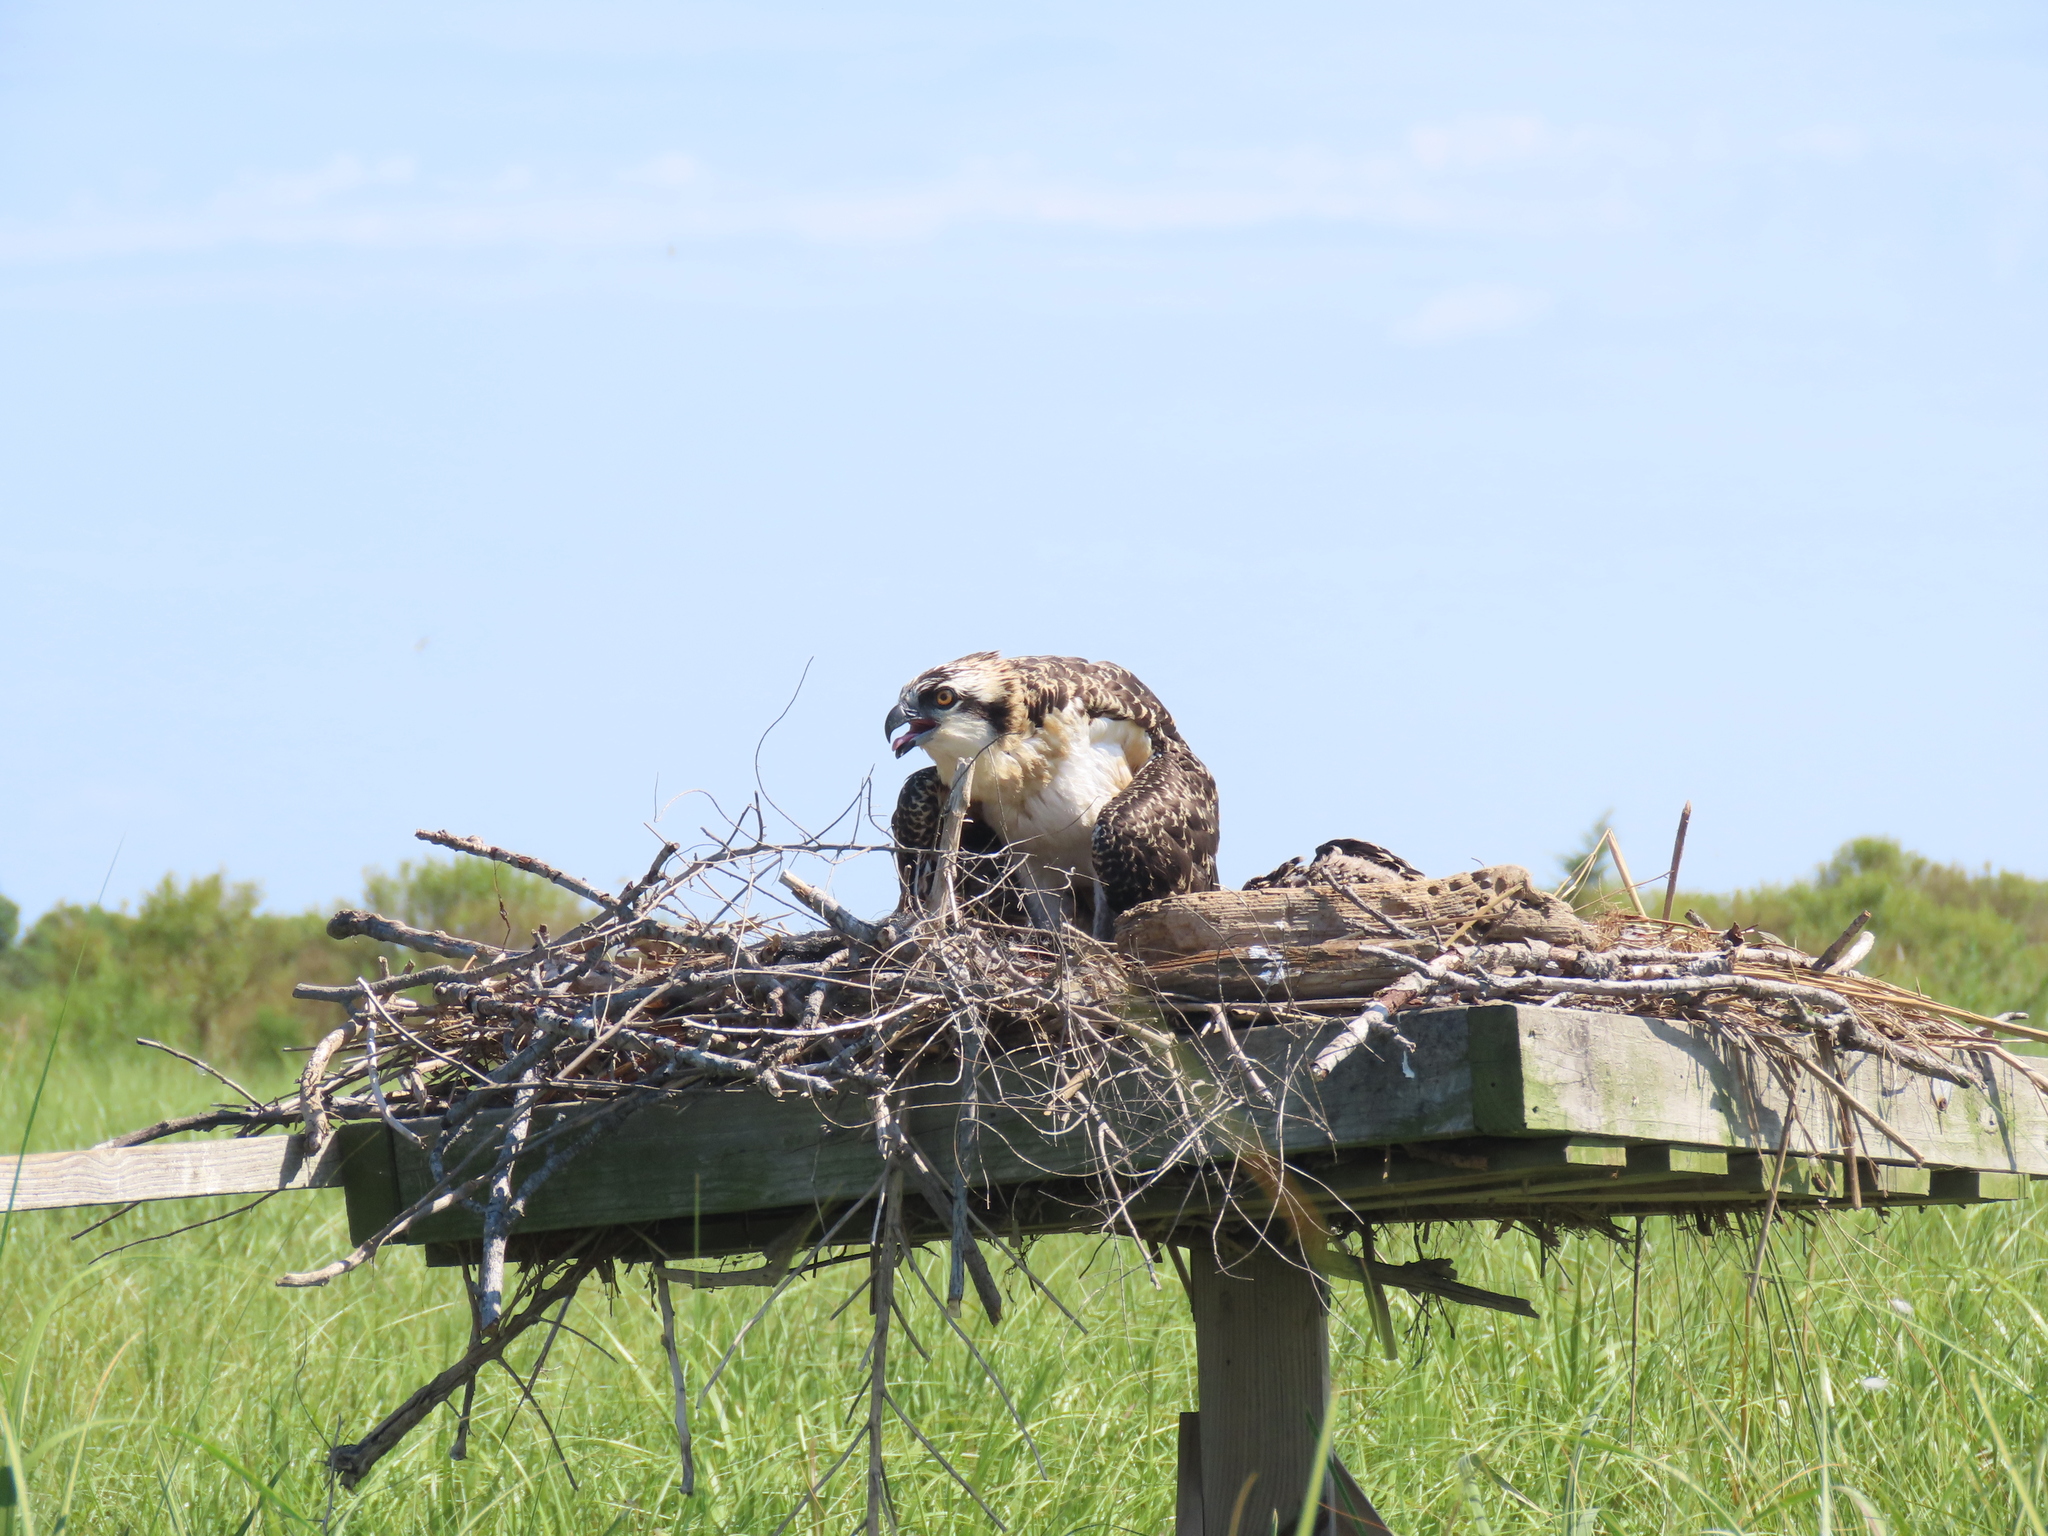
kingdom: Animalia
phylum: Chordata
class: Aves
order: Accipitriformes
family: Pandionidae
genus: Pandion
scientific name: Pandion haliaetus
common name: Osprey
